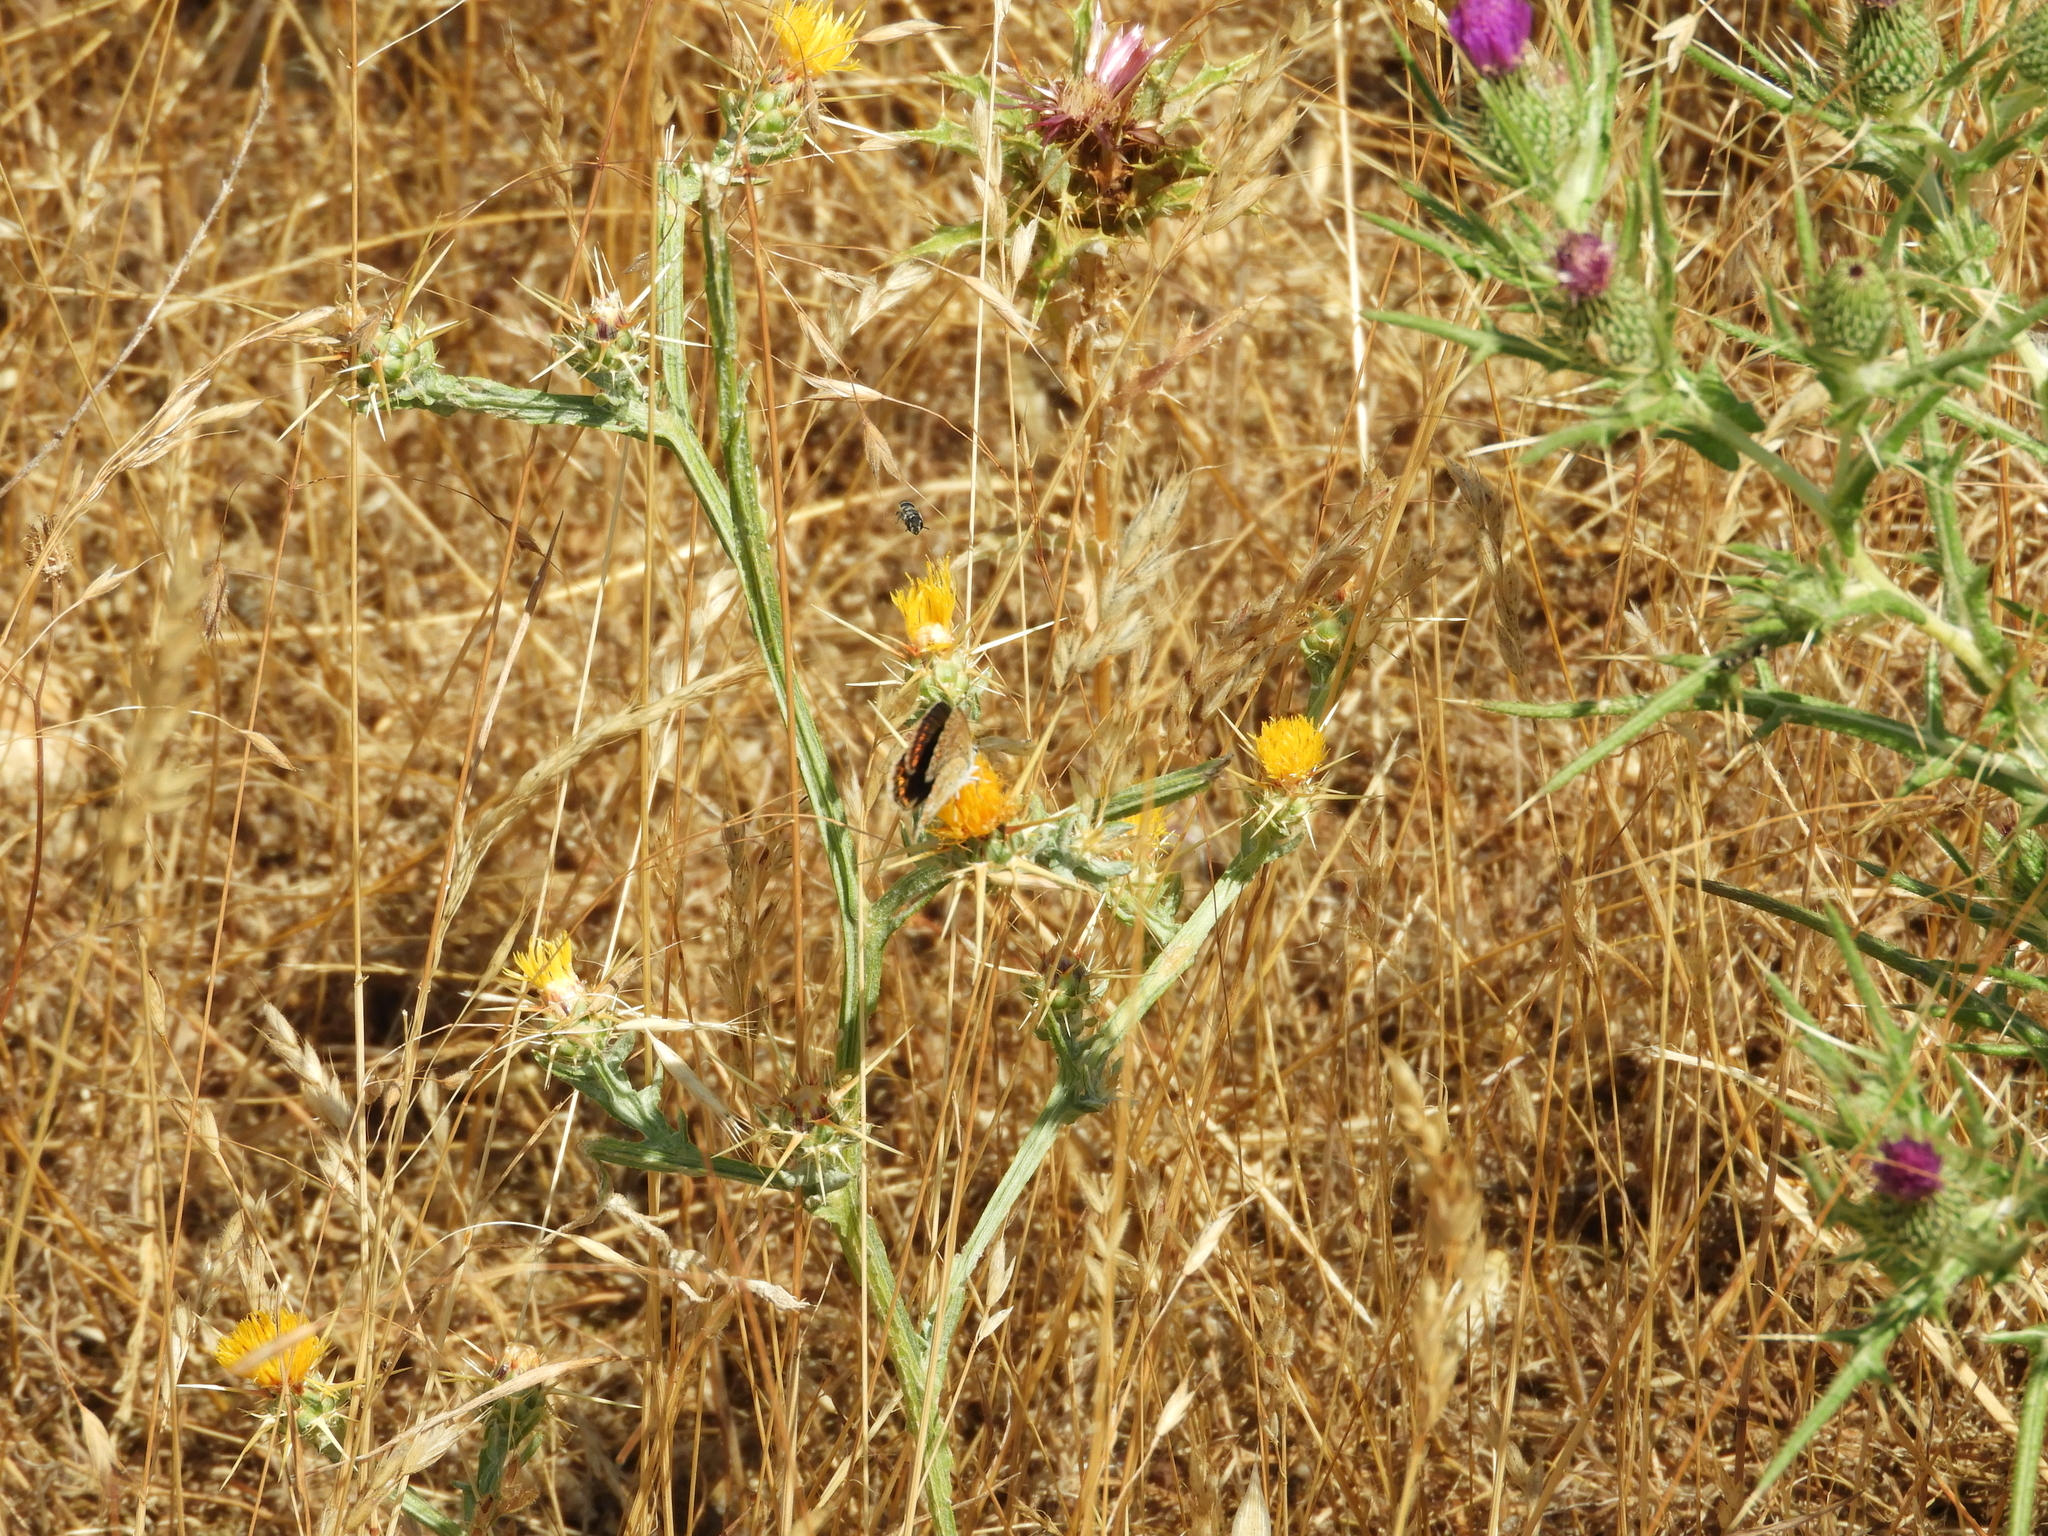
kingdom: Plantae
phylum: Tracheophyta
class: Magnoliopsida
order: Asterales
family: Asteraceae
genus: Centaurea
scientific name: Centaurea solstitialis
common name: Yellow star-thistle
